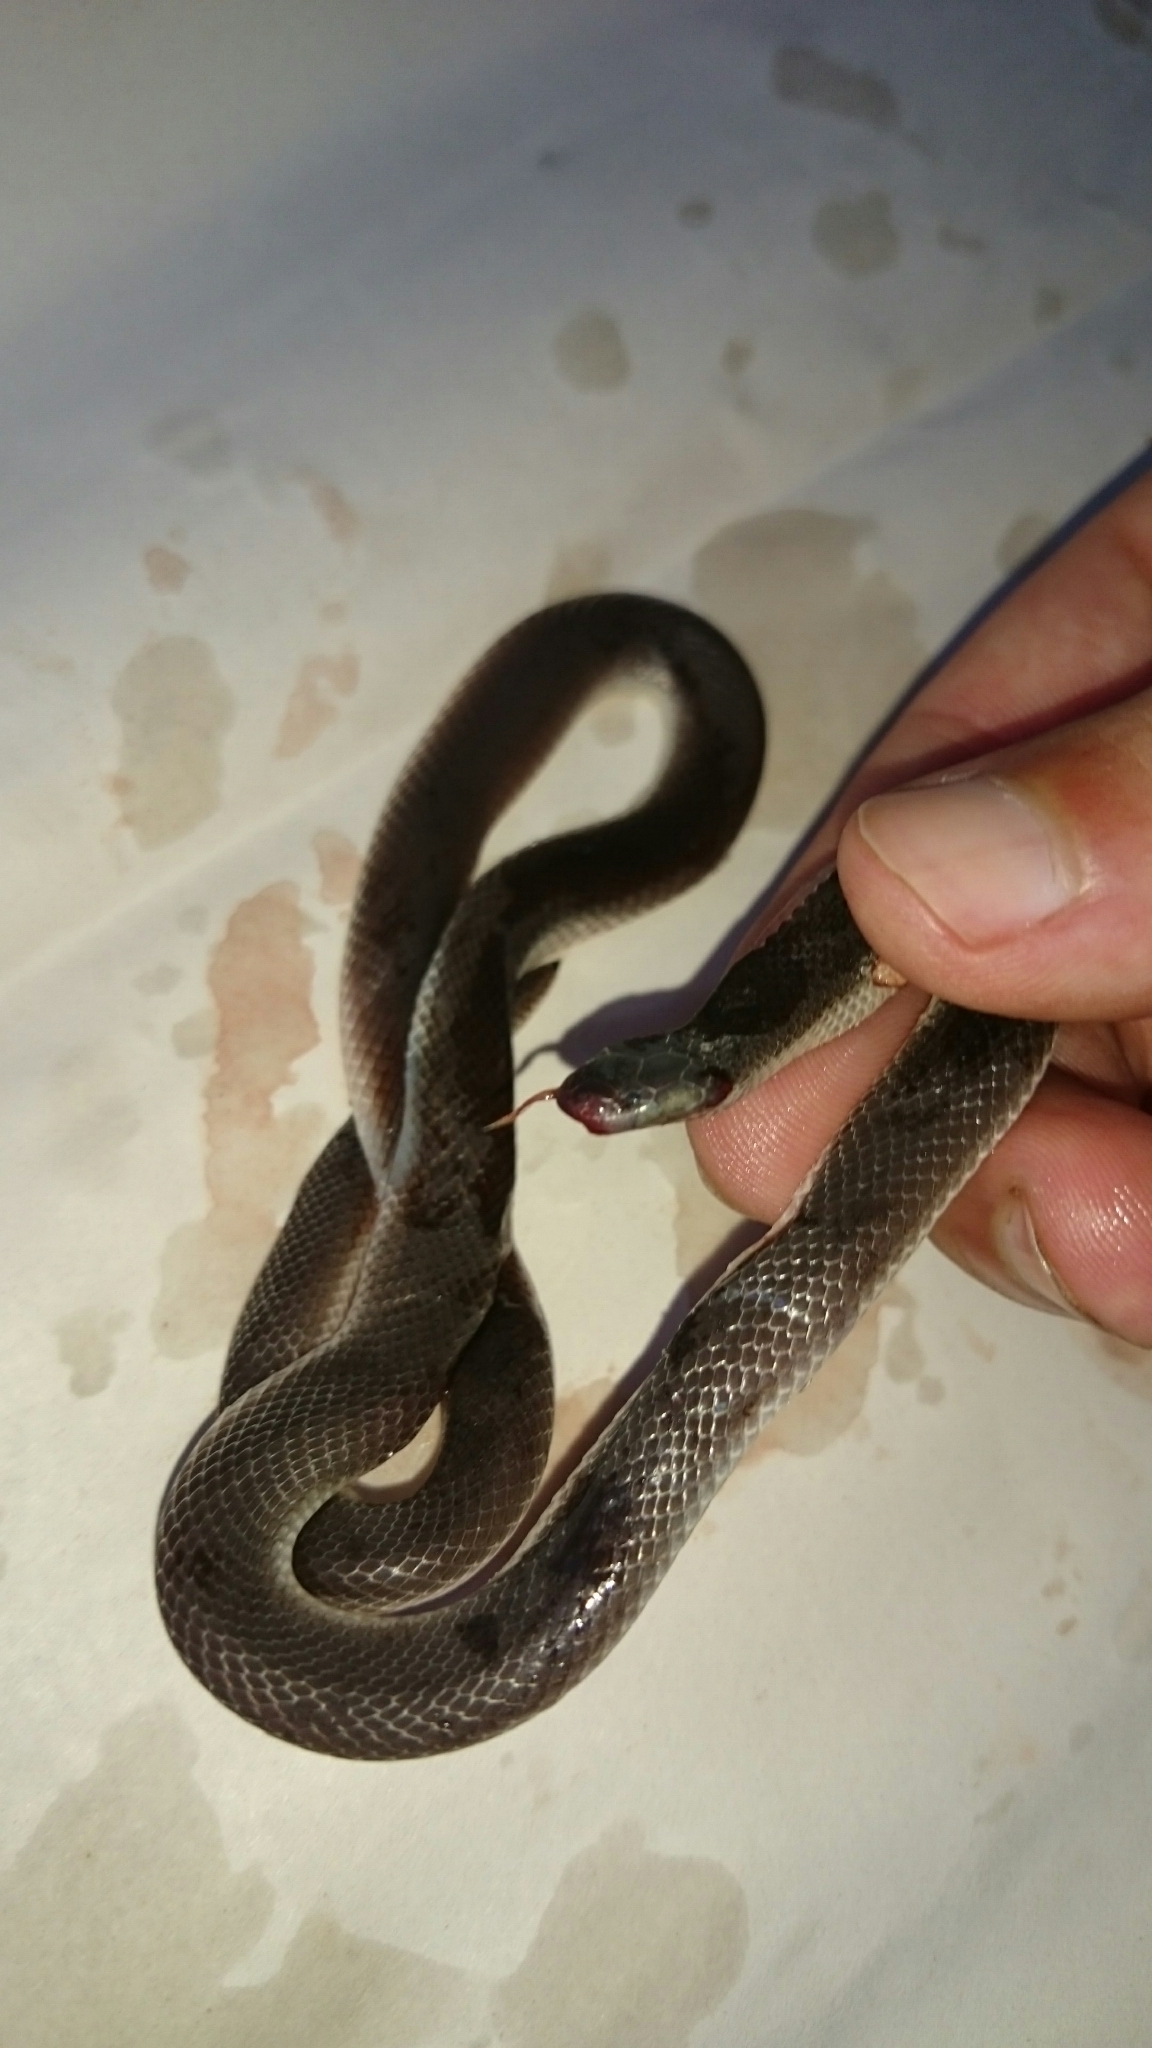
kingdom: Animalia
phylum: Chordata
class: Squamata
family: Atractaspididae
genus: Atractaspis
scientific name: Atractaspis bibronii
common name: Bibron's burrowing asp
